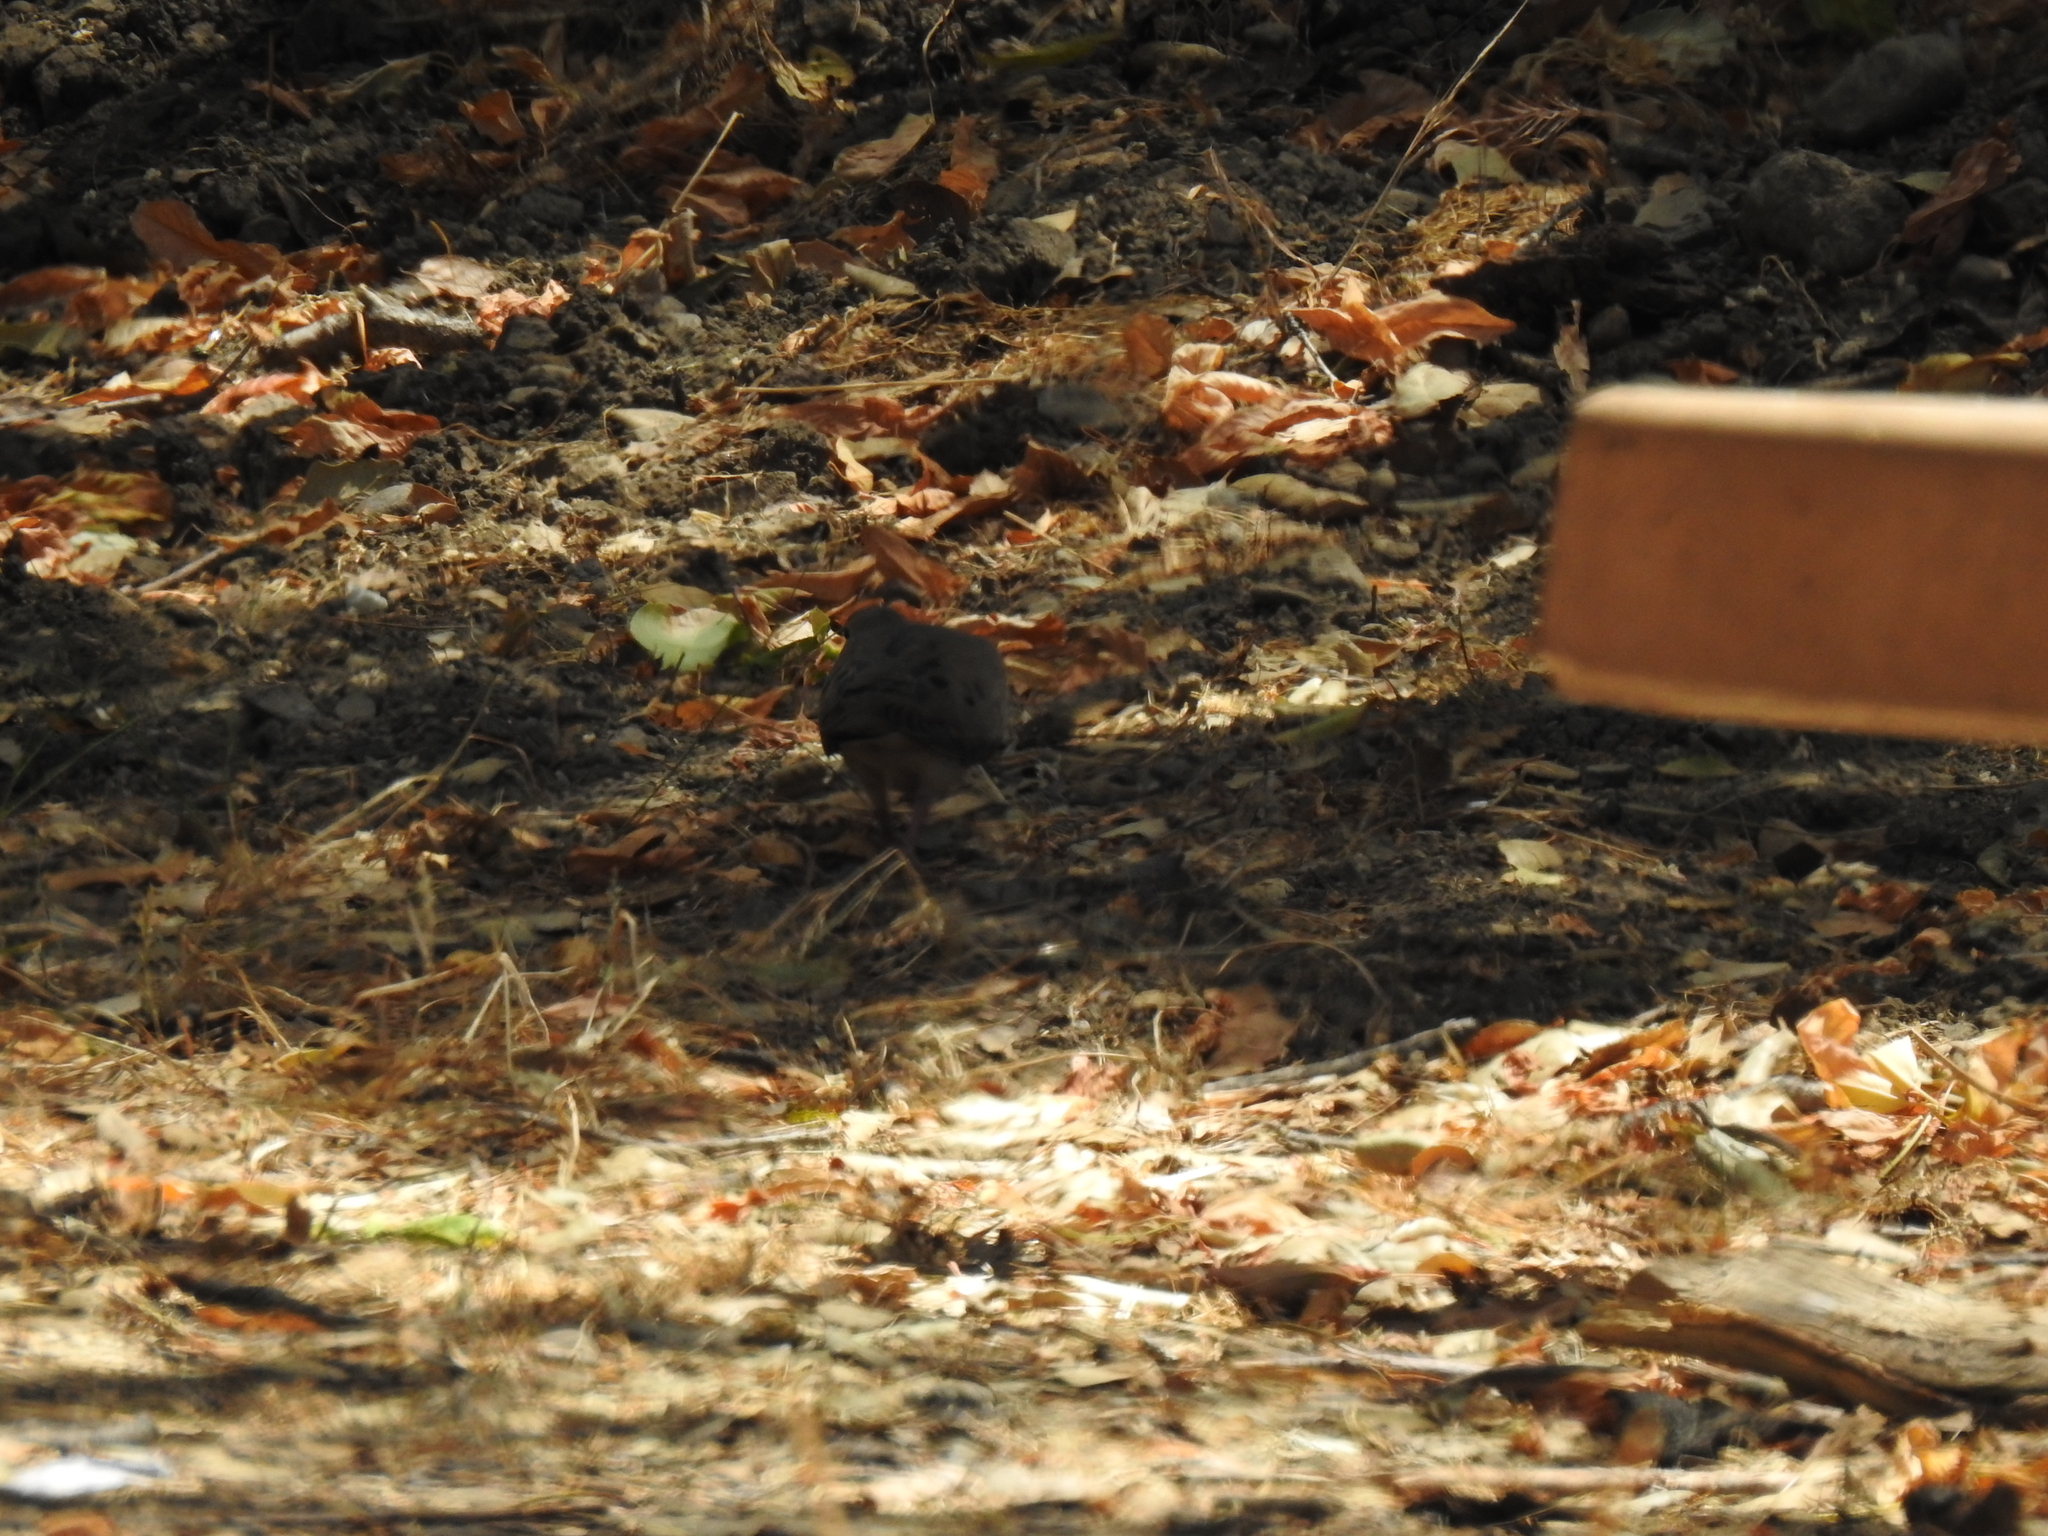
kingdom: Animalia
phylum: Chordata
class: Aves
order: Columbiformes
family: Columbidae
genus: Zenaida
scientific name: Zenaida macroura
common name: Mourning dove
